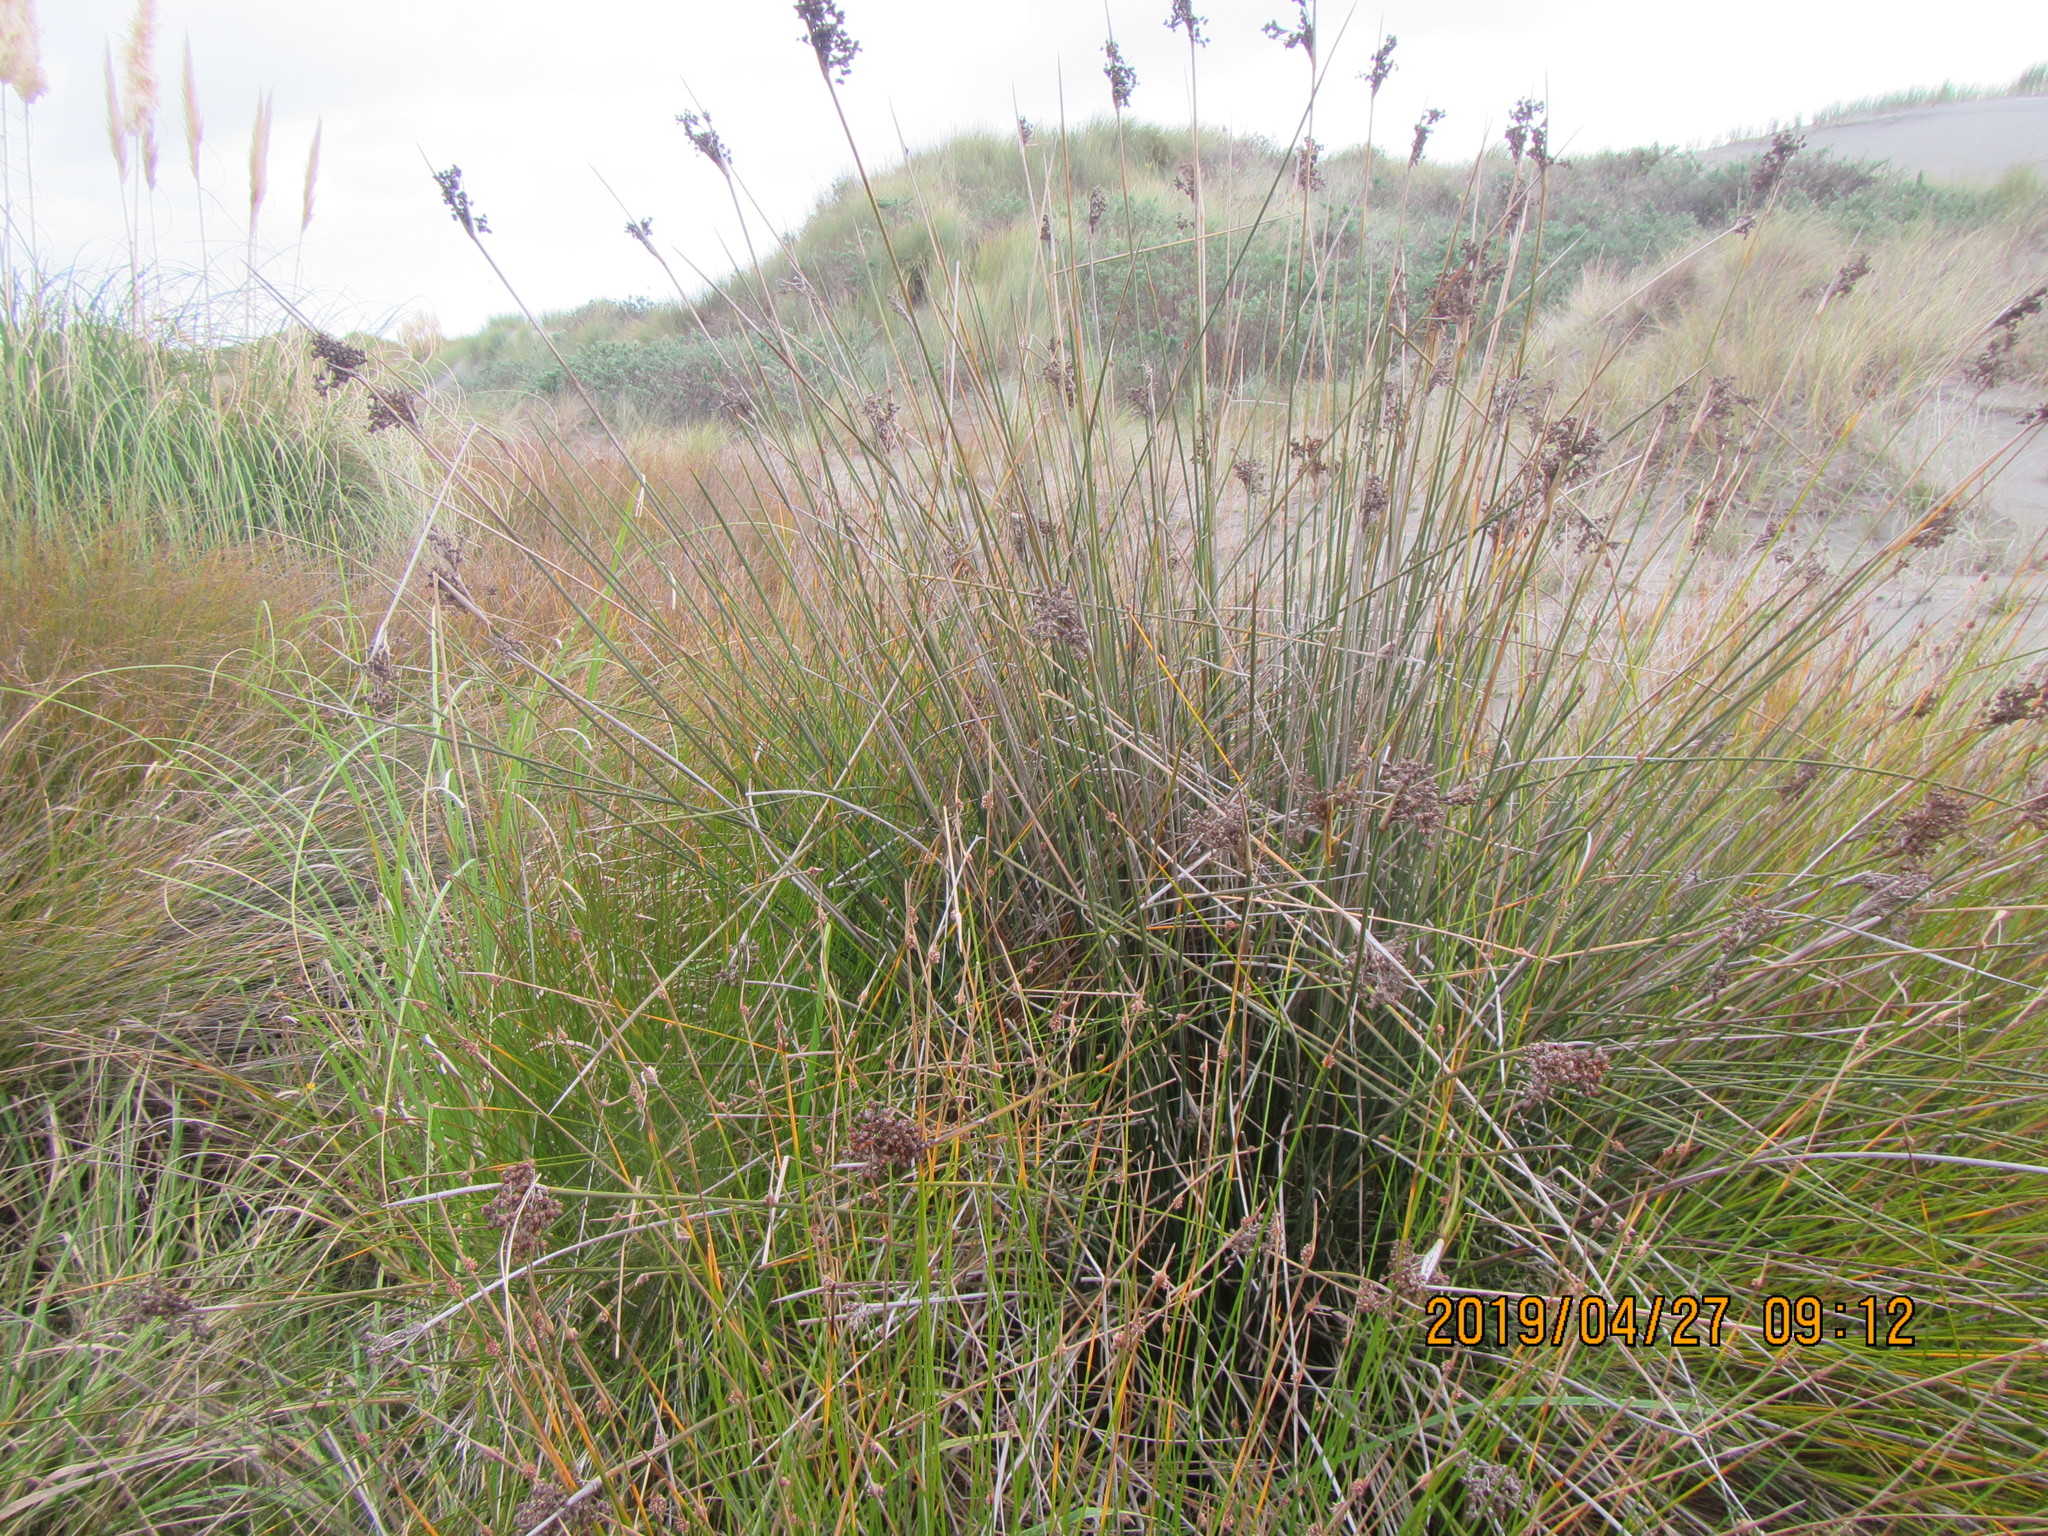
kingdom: Plantae
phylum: Tracheophyta
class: Liliopsida
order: Poales
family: Juncaceae
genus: Juncus
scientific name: Juncus acutus
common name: Sharp rush
